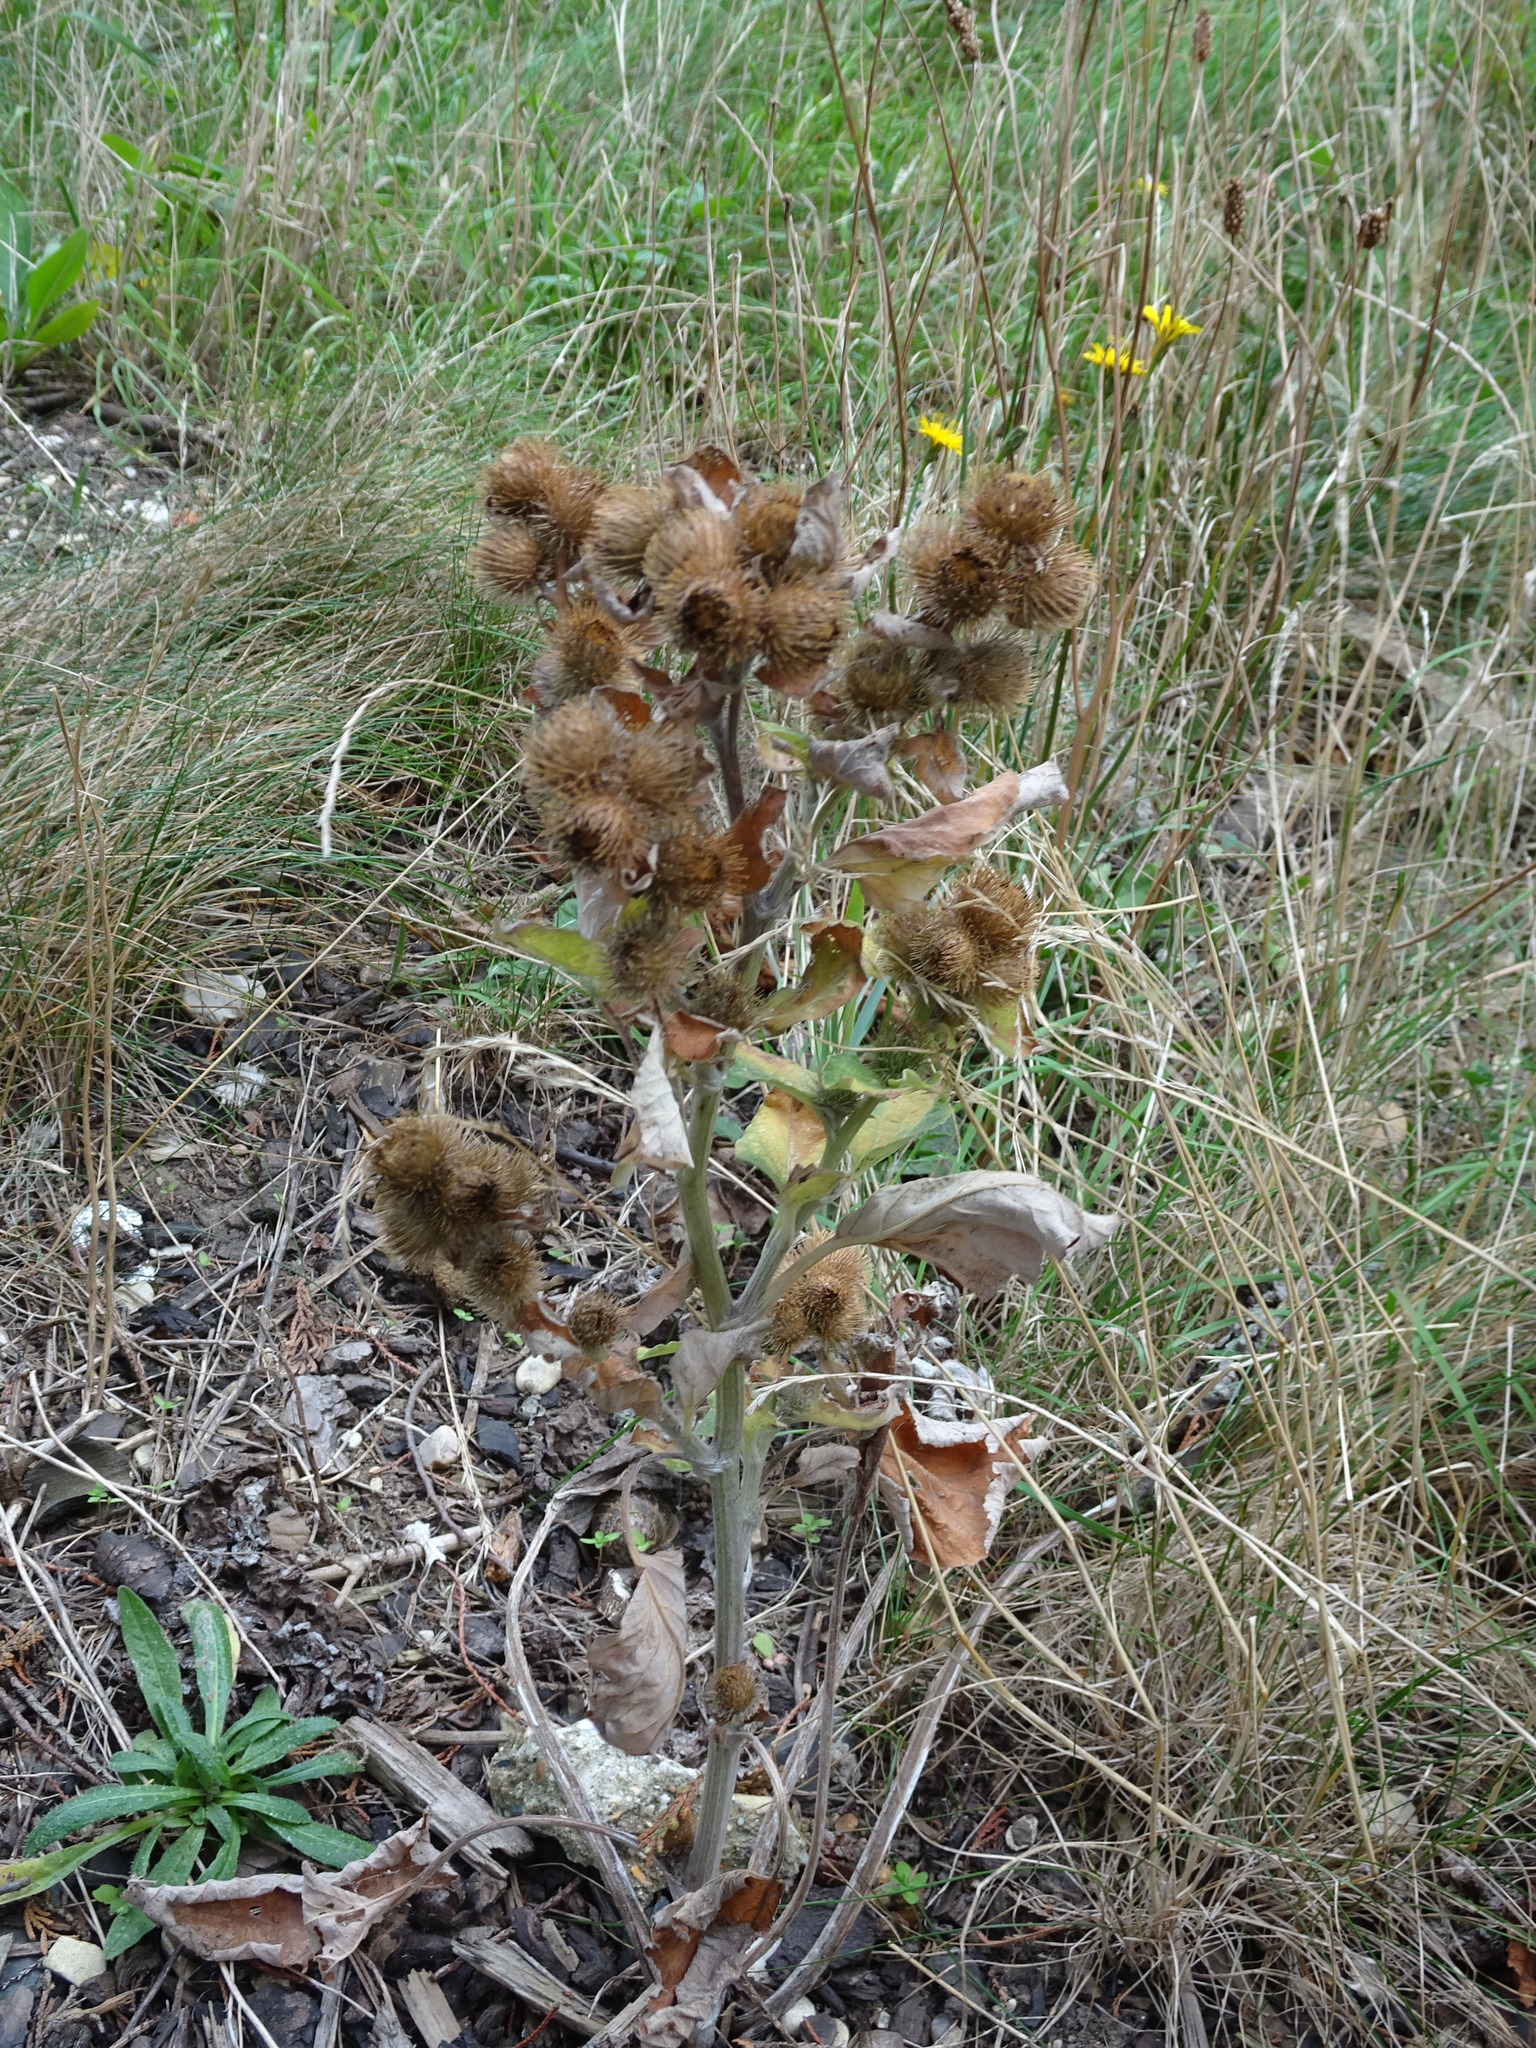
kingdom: Plantae
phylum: Tracheophyta
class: Magnoliopsida
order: Asterales
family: Asteraceae
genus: Arctium
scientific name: Arctium minus
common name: Lesser burdock
